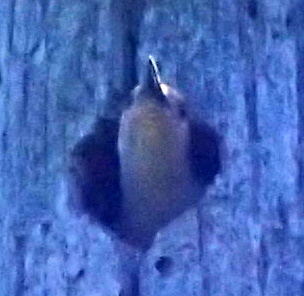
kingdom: Animalia
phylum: Chordata
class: Aves
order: Piciformes
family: Picidae
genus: Melanerpes
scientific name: Melanerpes carolinus
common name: Red-bellied woodpecker
